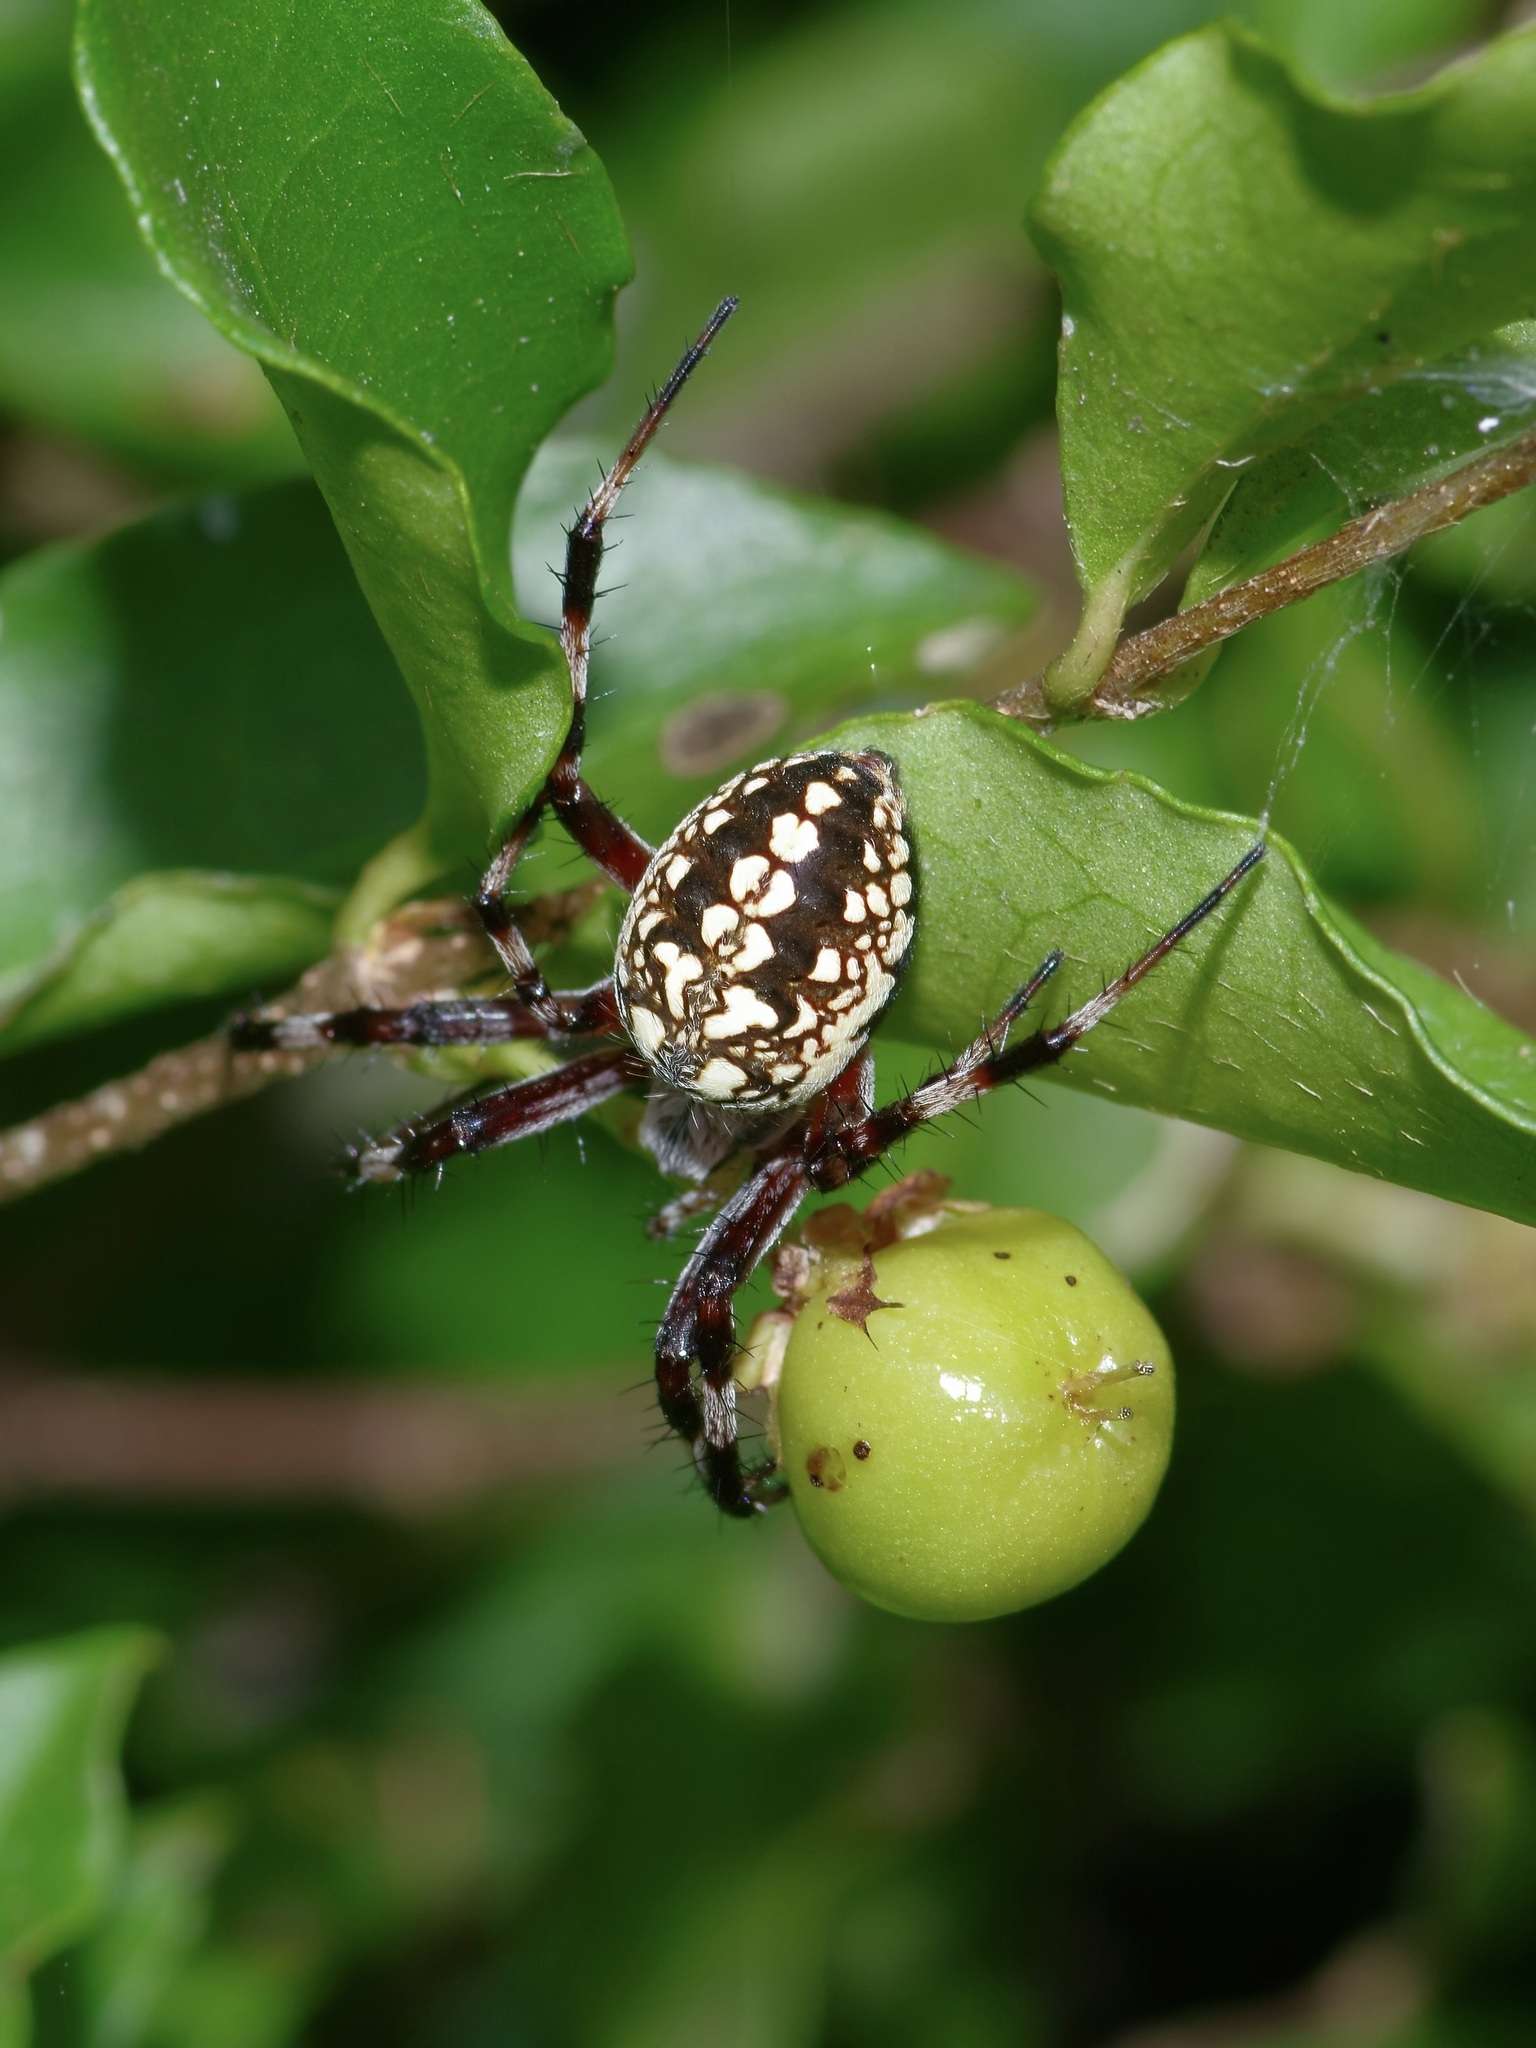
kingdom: Animalia
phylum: Arthropoda
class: Arachnida
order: Araneae
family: Araneidae
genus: Neoscona
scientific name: Neoscona oaxacensis
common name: Orb weavers
